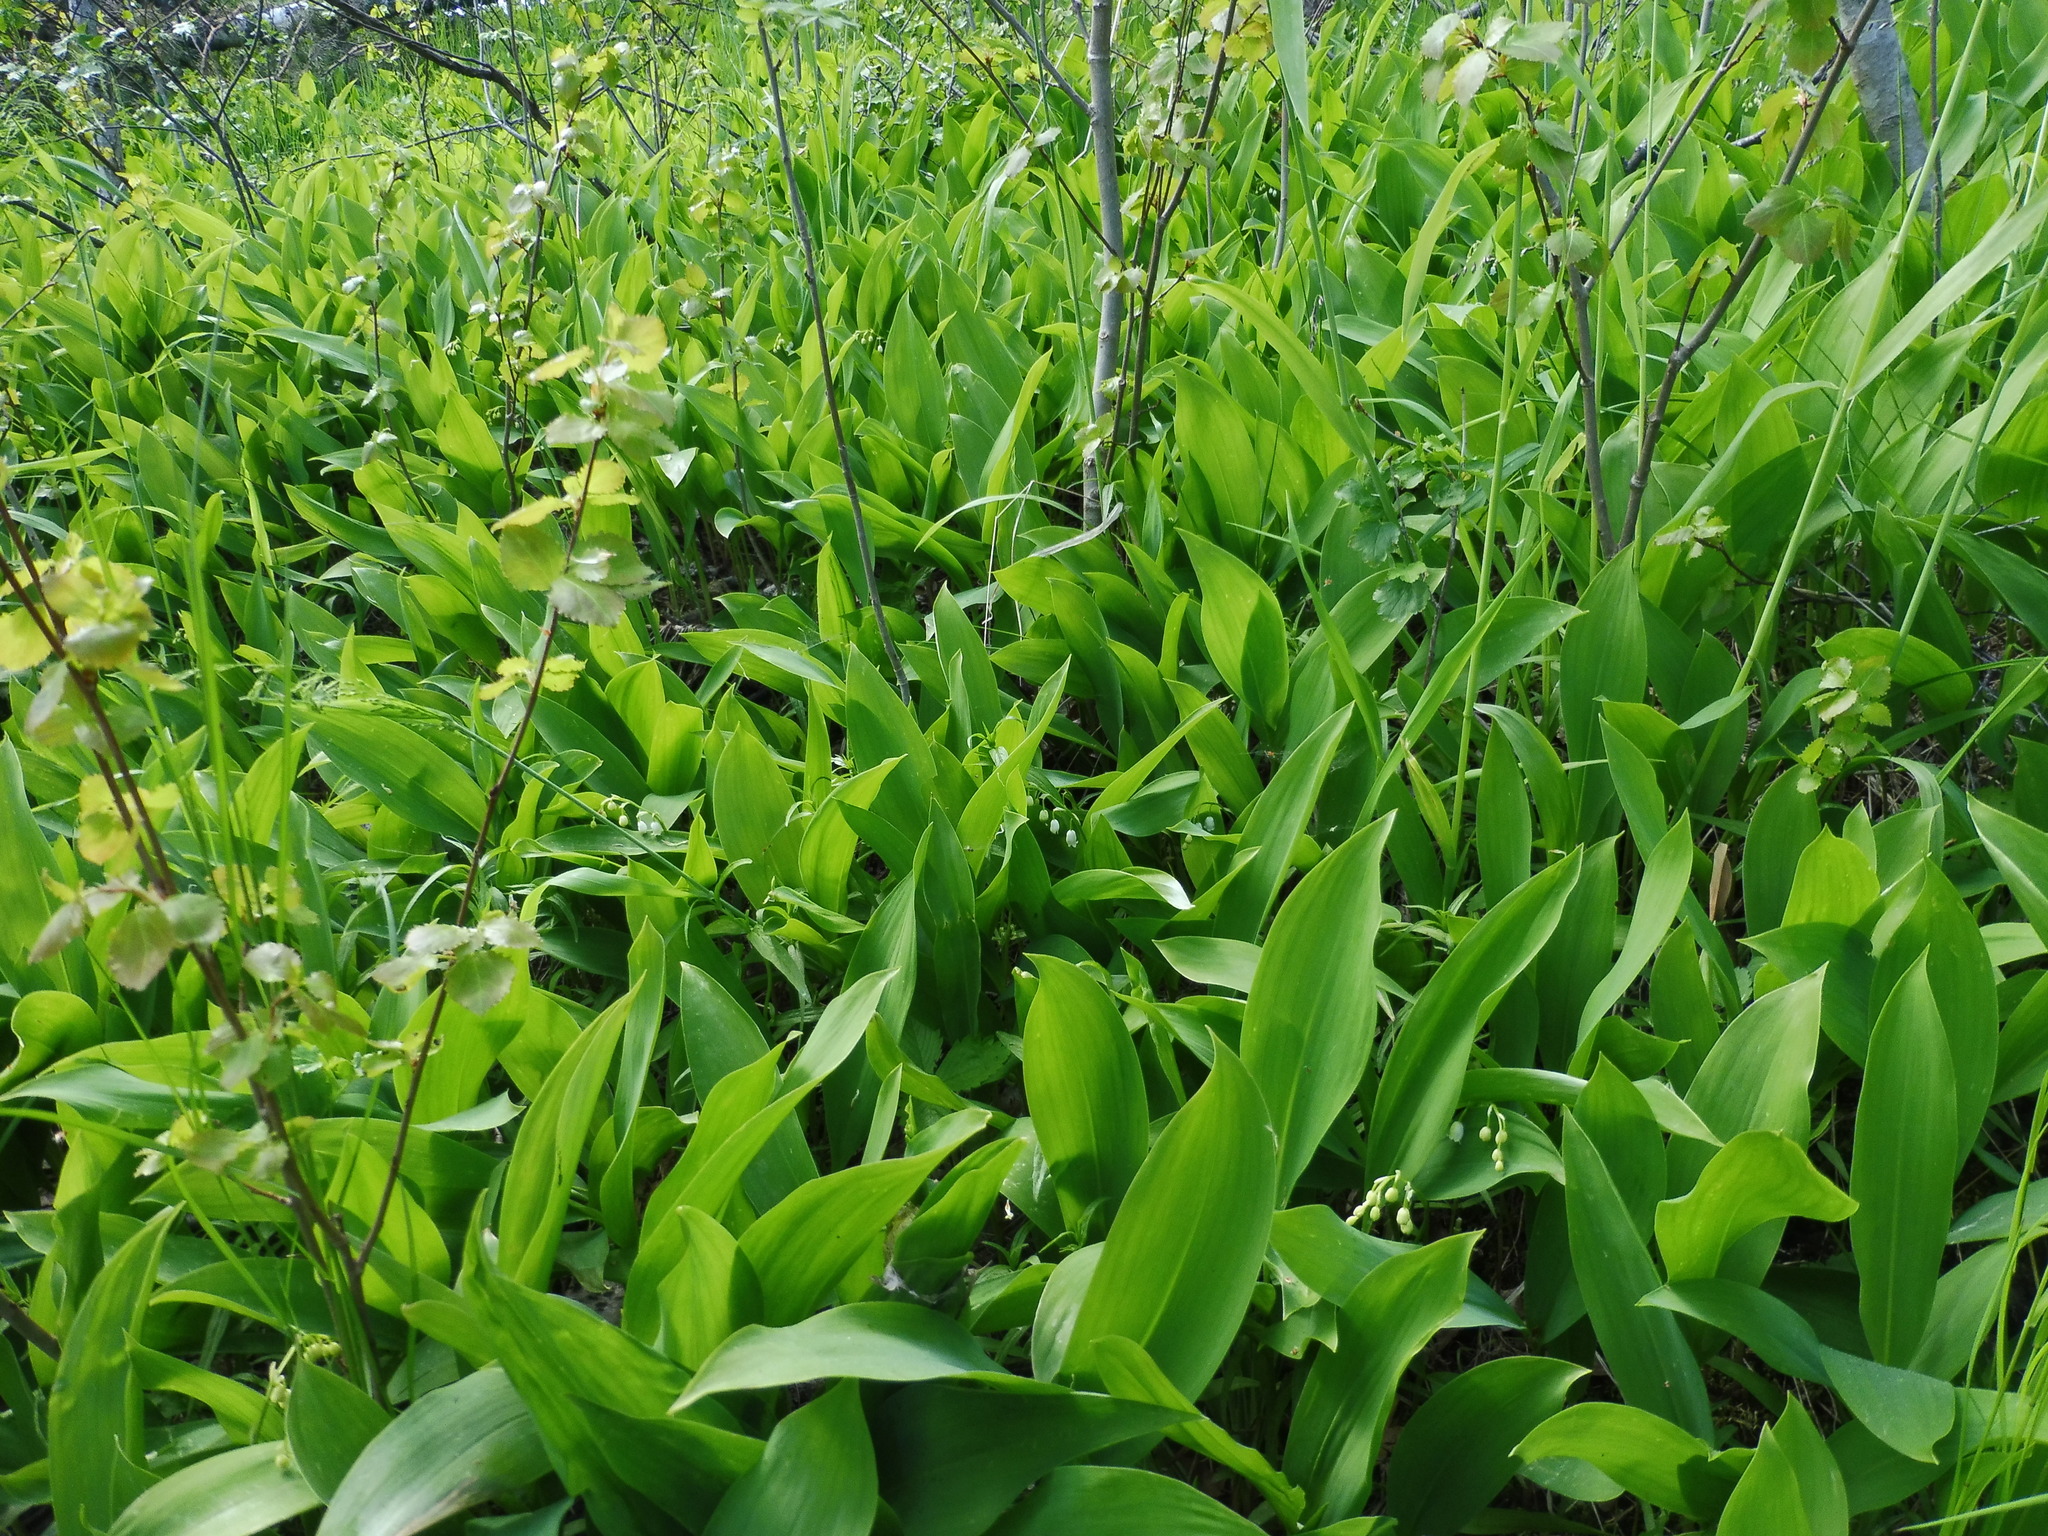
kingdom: Plantae
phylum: Tracheophyta
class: Liliopsida
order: Asparagales
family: Asparagaceae
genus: Convallaria
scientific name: Convallaria majalis
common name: Lily-of-the-valley
